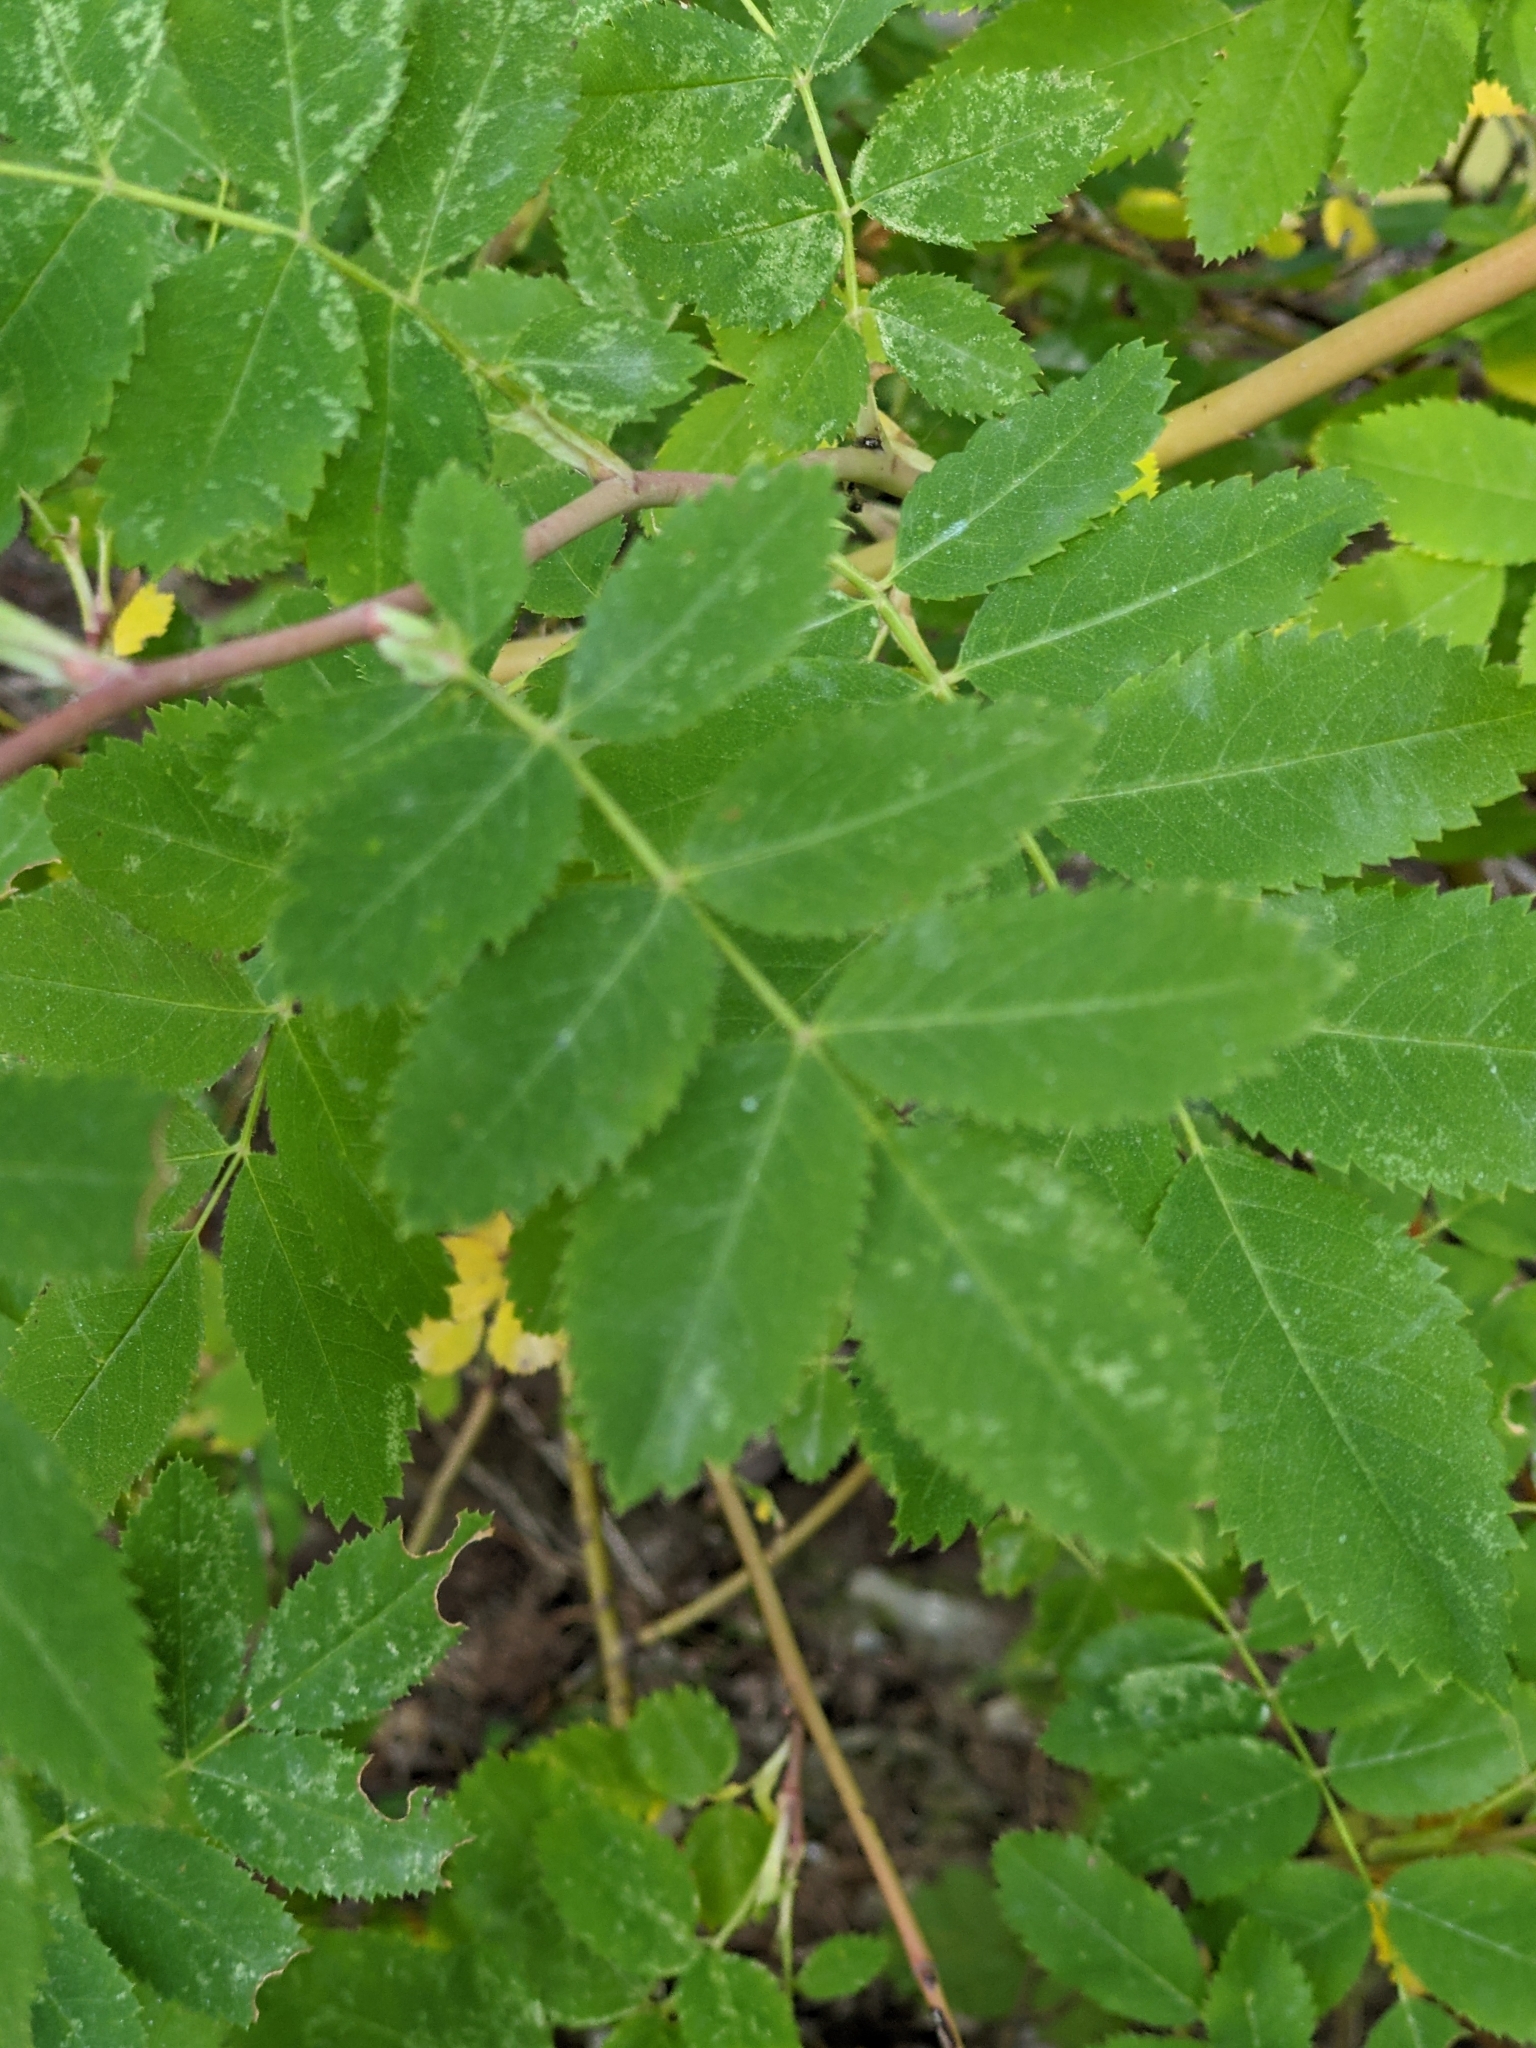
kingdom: Plantae
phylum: Tracheophyta
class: Magnoliopsida
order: Rosales
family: Rosaceae
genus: Rosa
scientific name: Rosa pendulina
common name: Alpine rose
